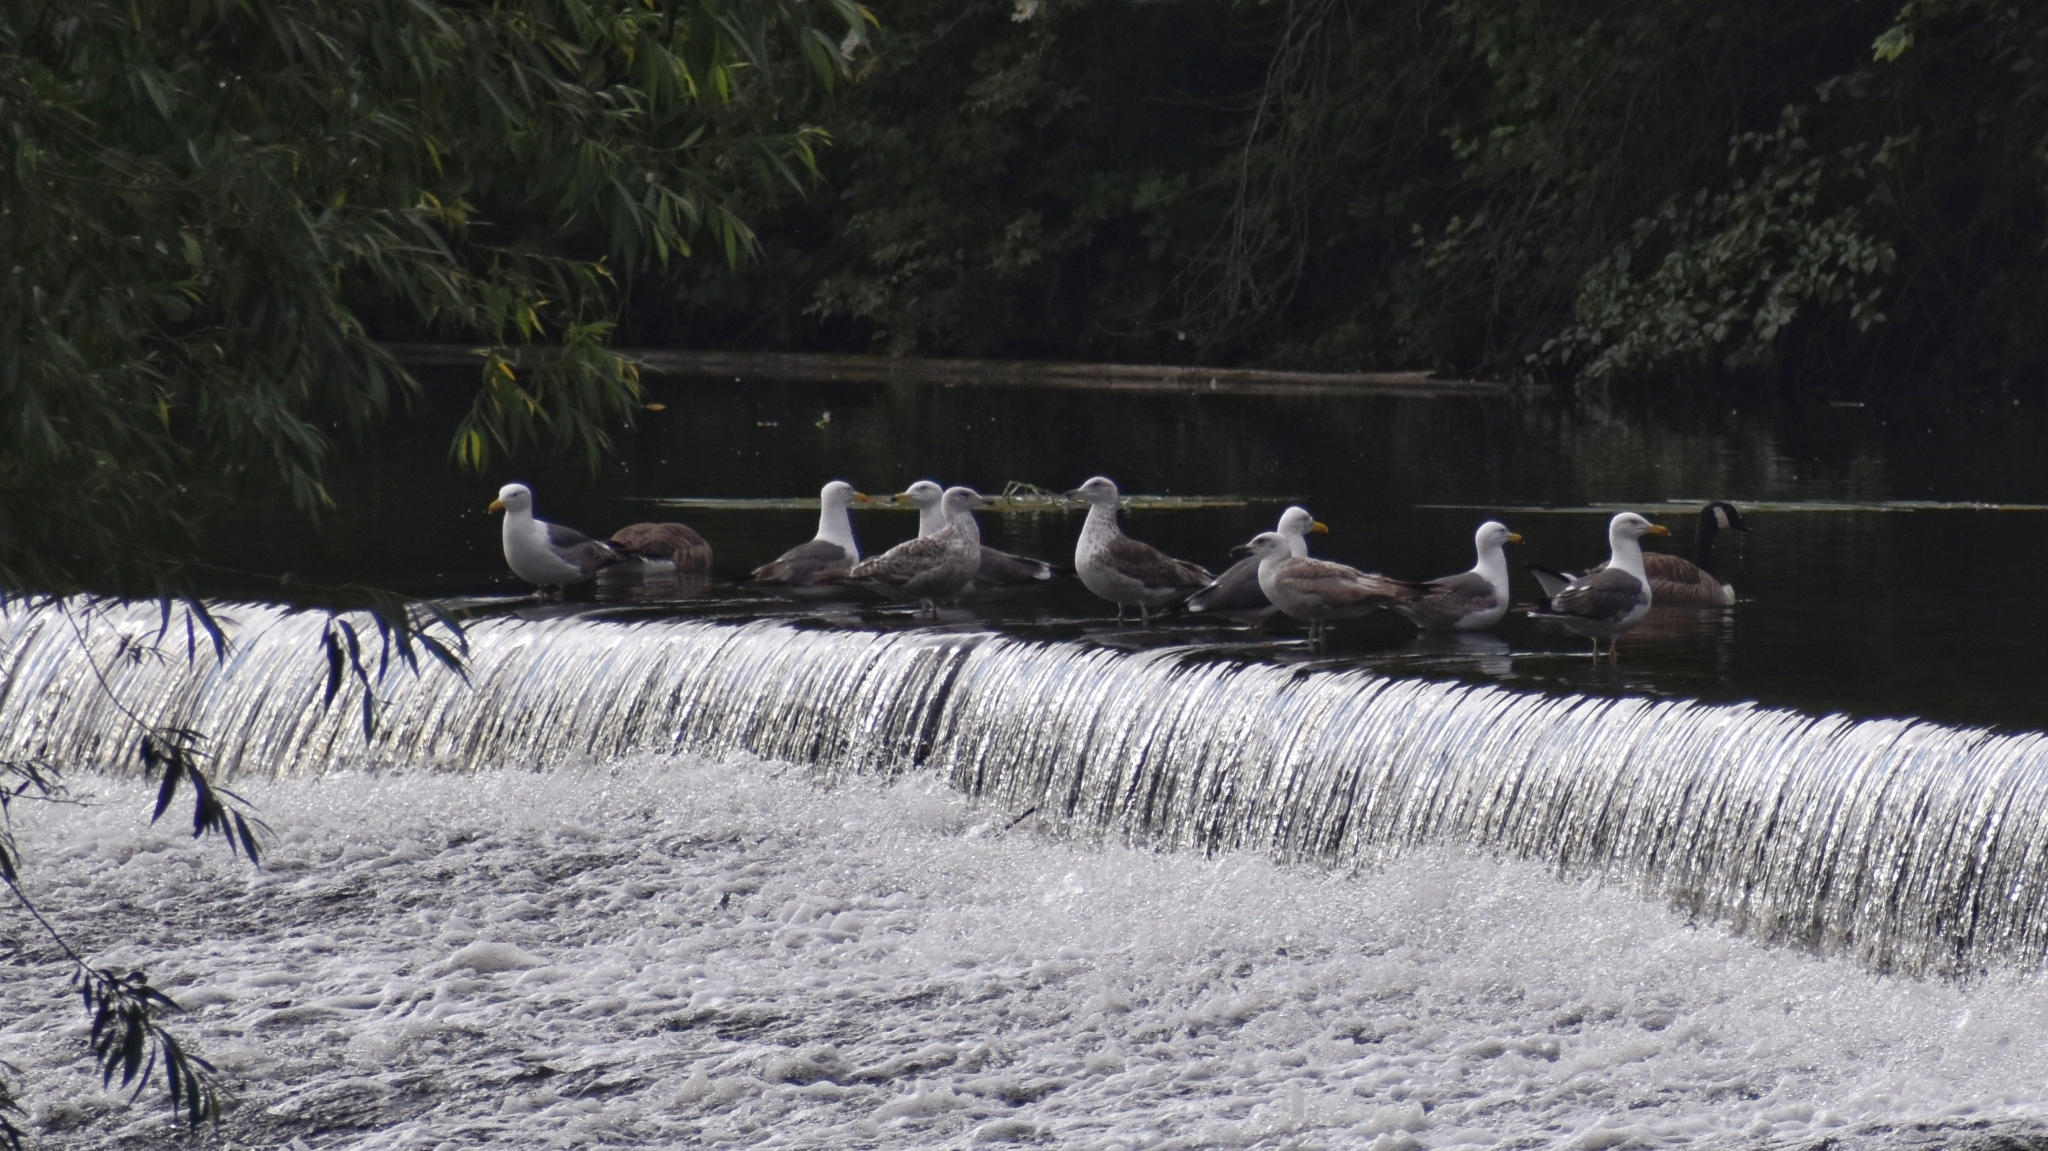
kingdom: Animalia
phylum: Chordata
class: Aves
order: Charadriiformes
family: Laridae
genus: Larus
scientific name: Larus fuscus
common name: Lesser black-backed gull
